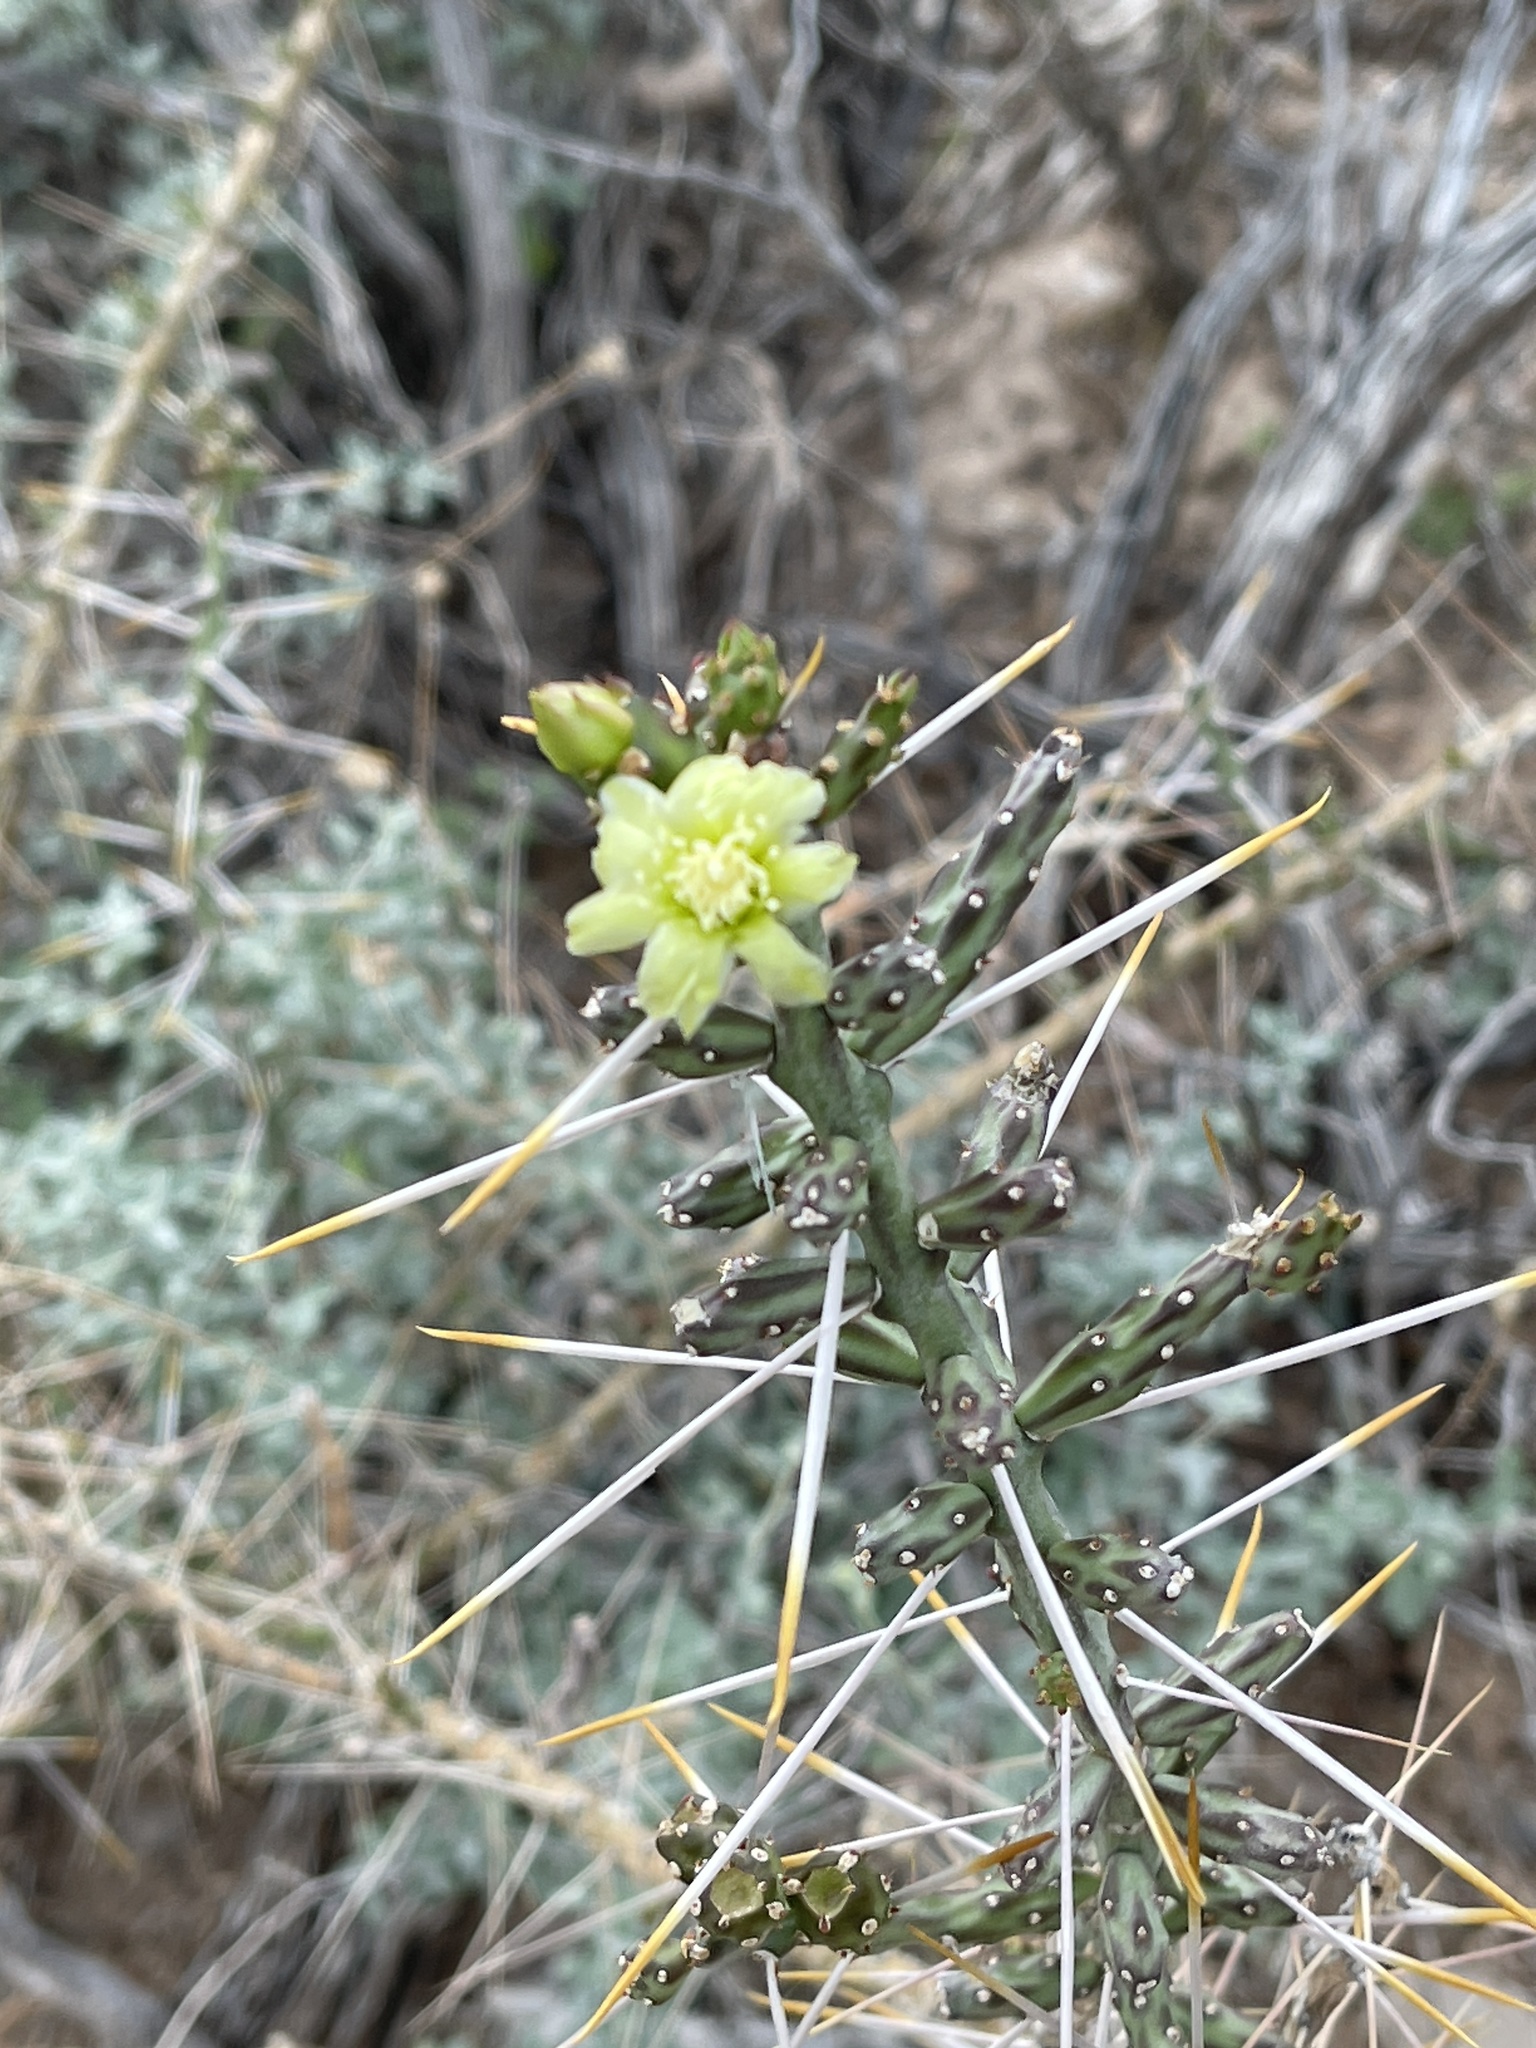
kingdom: Plantae
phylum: Tracheophyta
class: Magnoliopsida
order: Caryophyllales
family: Cactaceae
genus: Cylindropuntia
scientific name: Cylindropuntia leptocaulis
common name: Christmas cactus
